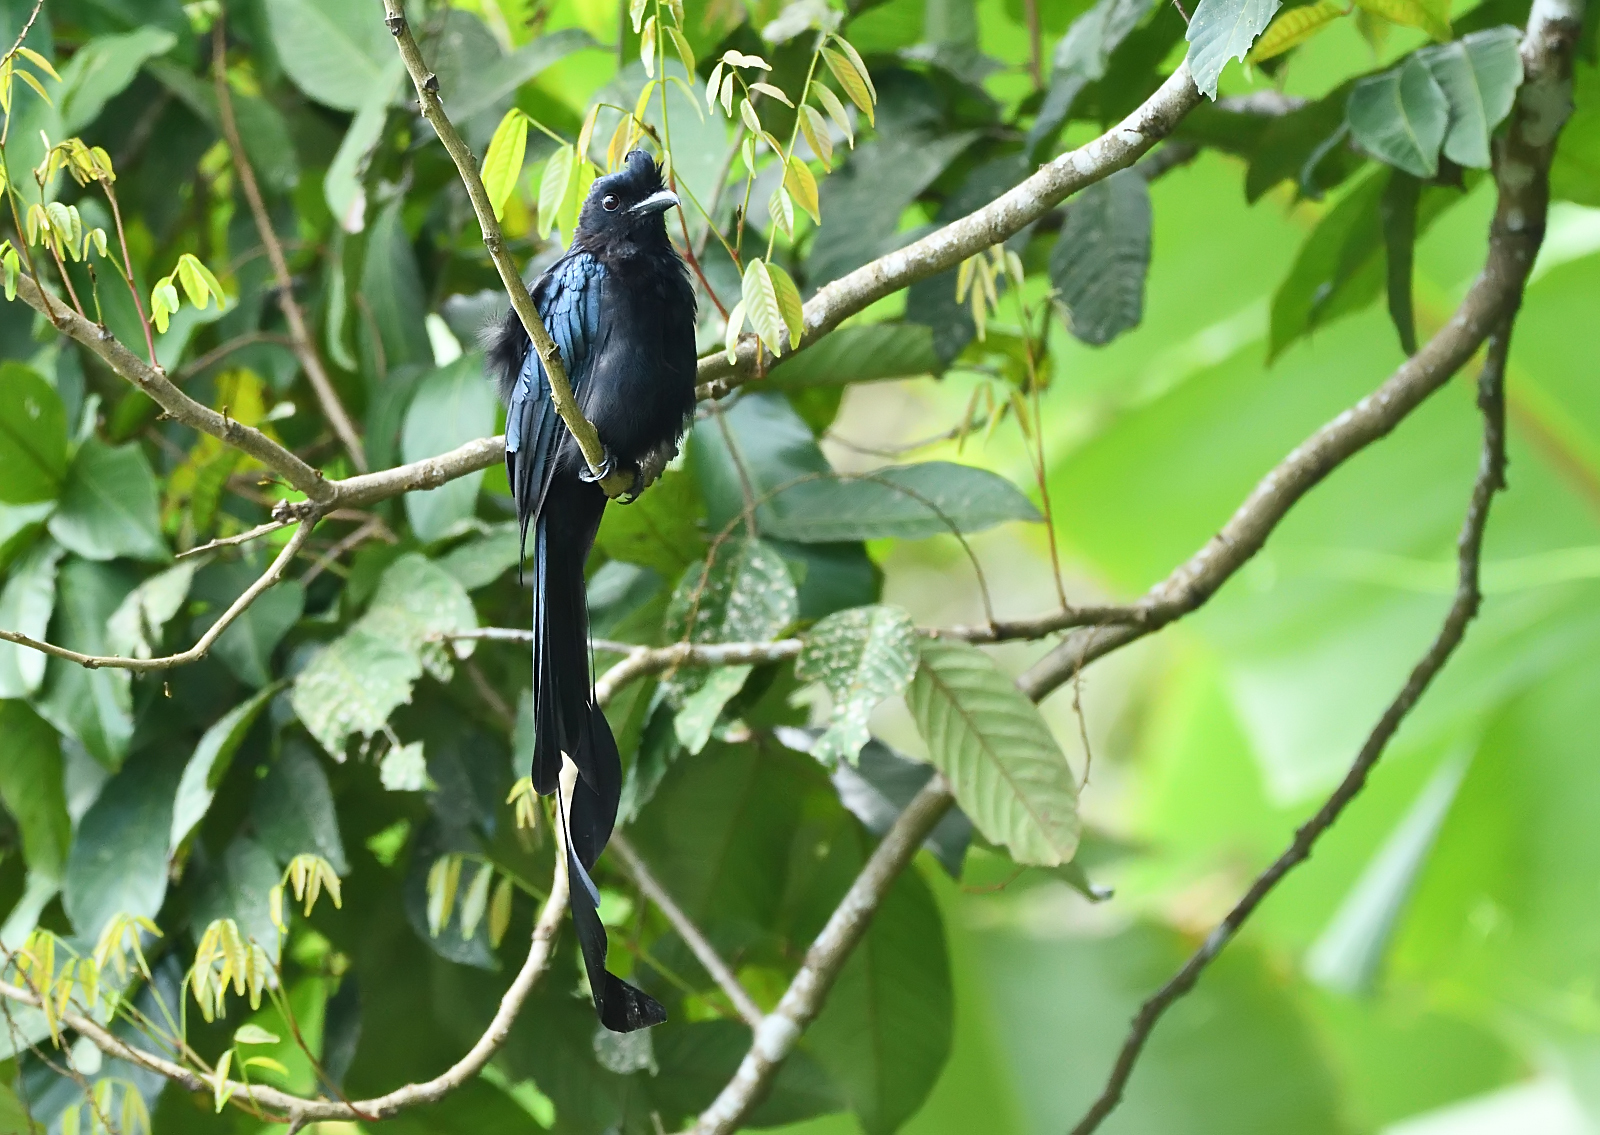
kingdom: Animalia
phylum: Chordata
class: Aves
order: Passeriformes
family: Dicruridae
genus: Dicrurus
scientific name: Dicrurus paradiseus
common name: Greater racket-tailed drongo
